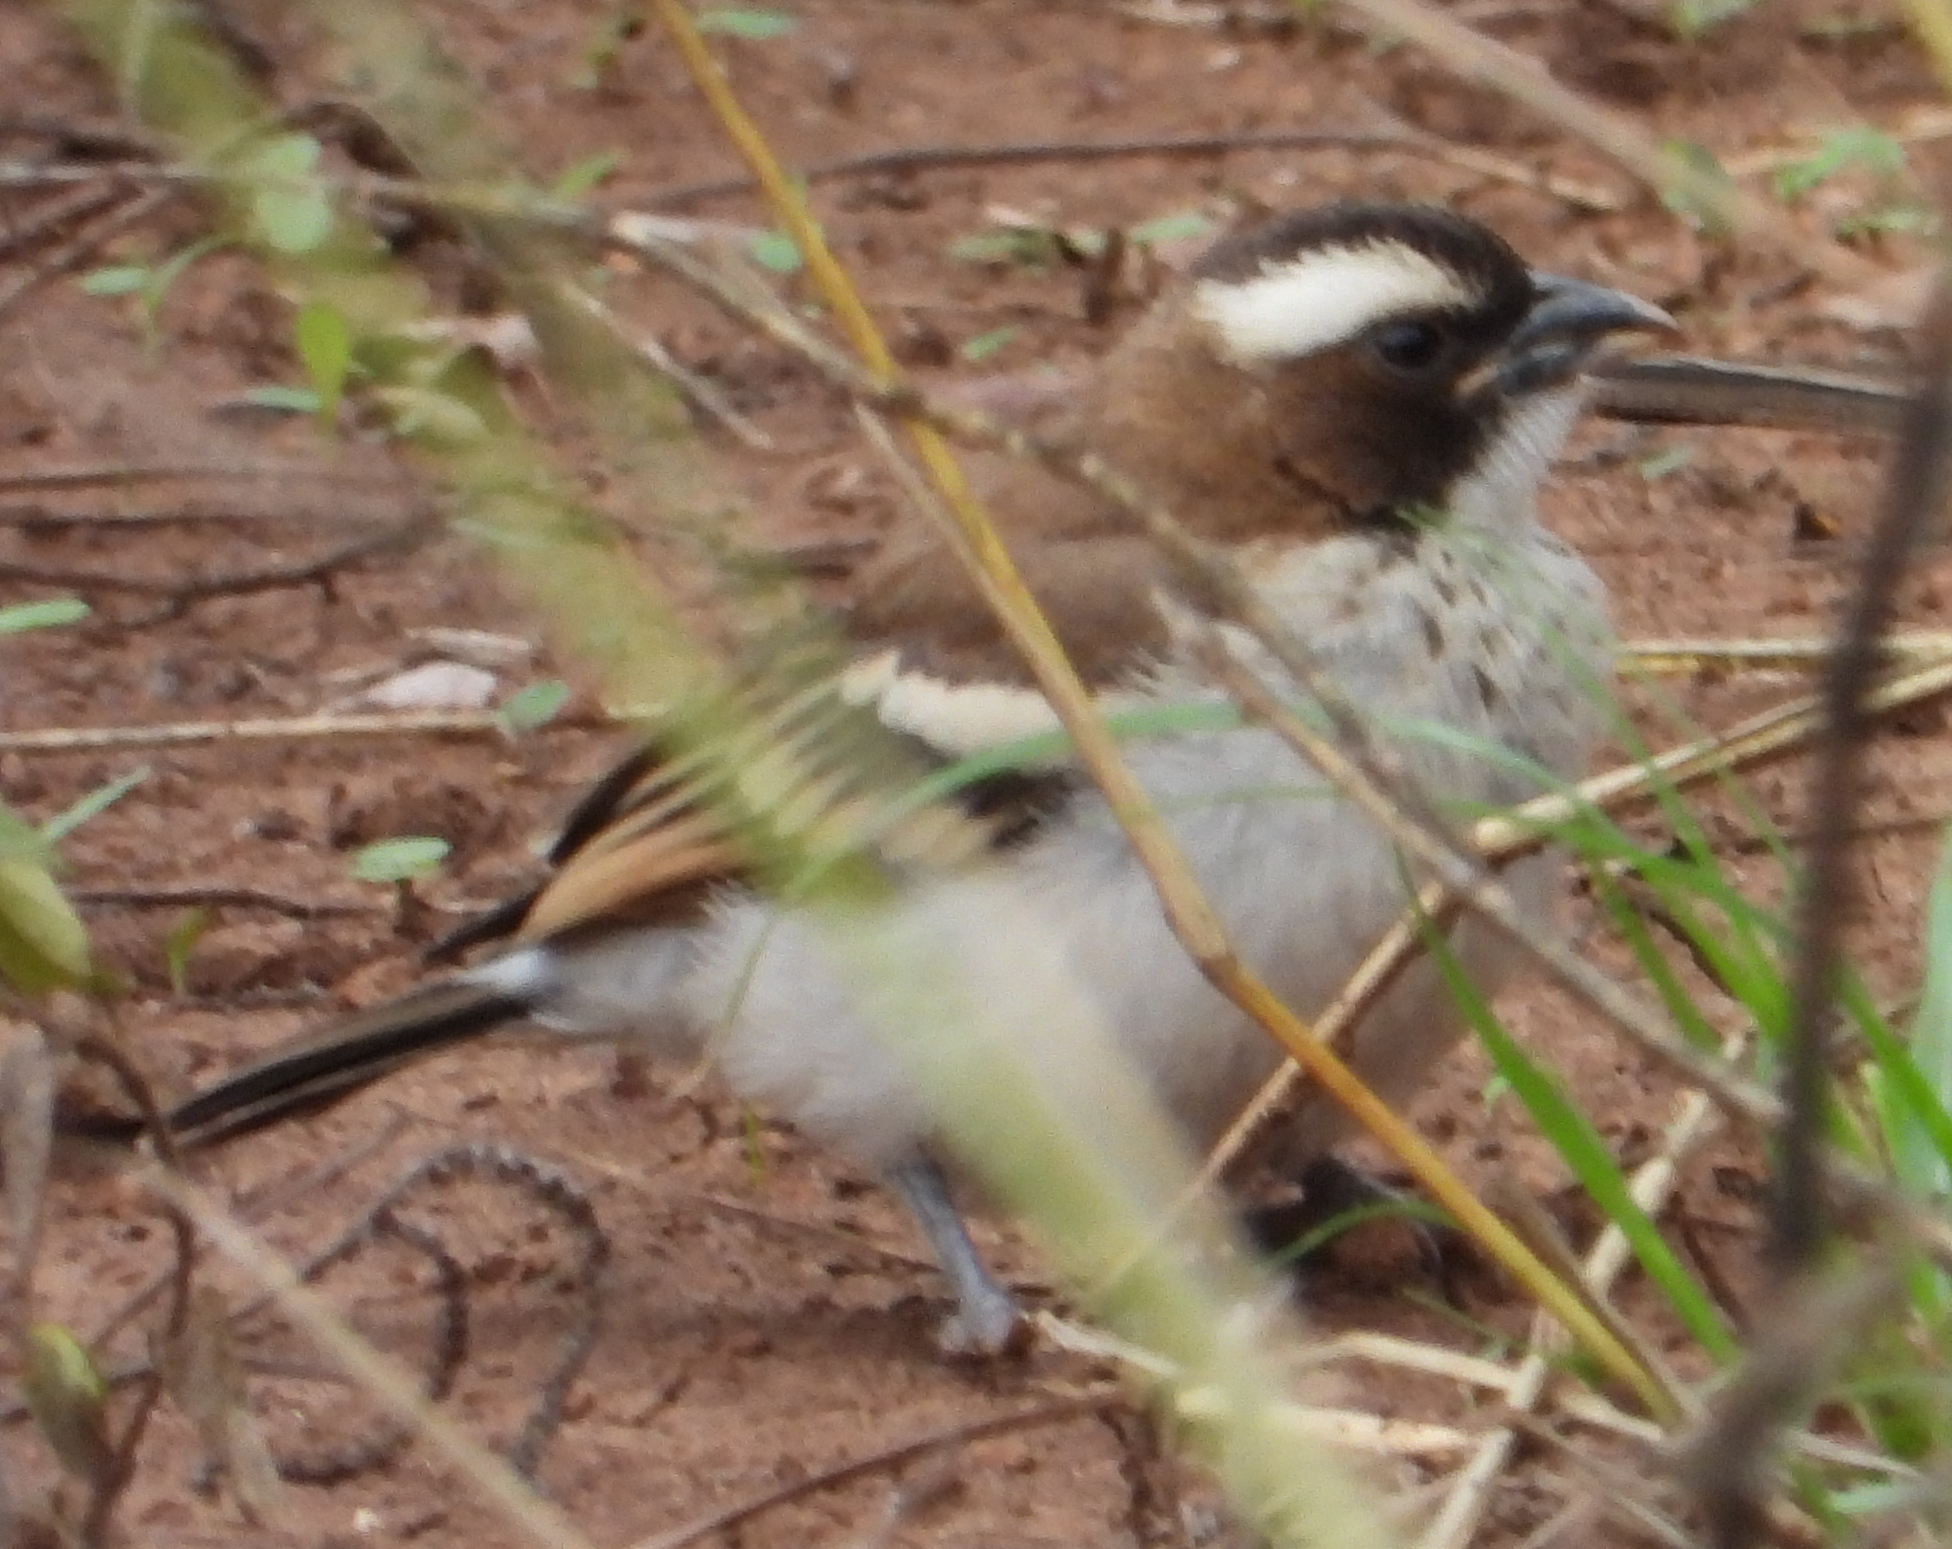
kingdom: Animalia
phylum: Chordata
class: Aves
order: Passeriformes
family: Passeridae
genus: Plocepasser
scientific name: Plocepasser mahali
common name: White-browed sparrow-weaver
